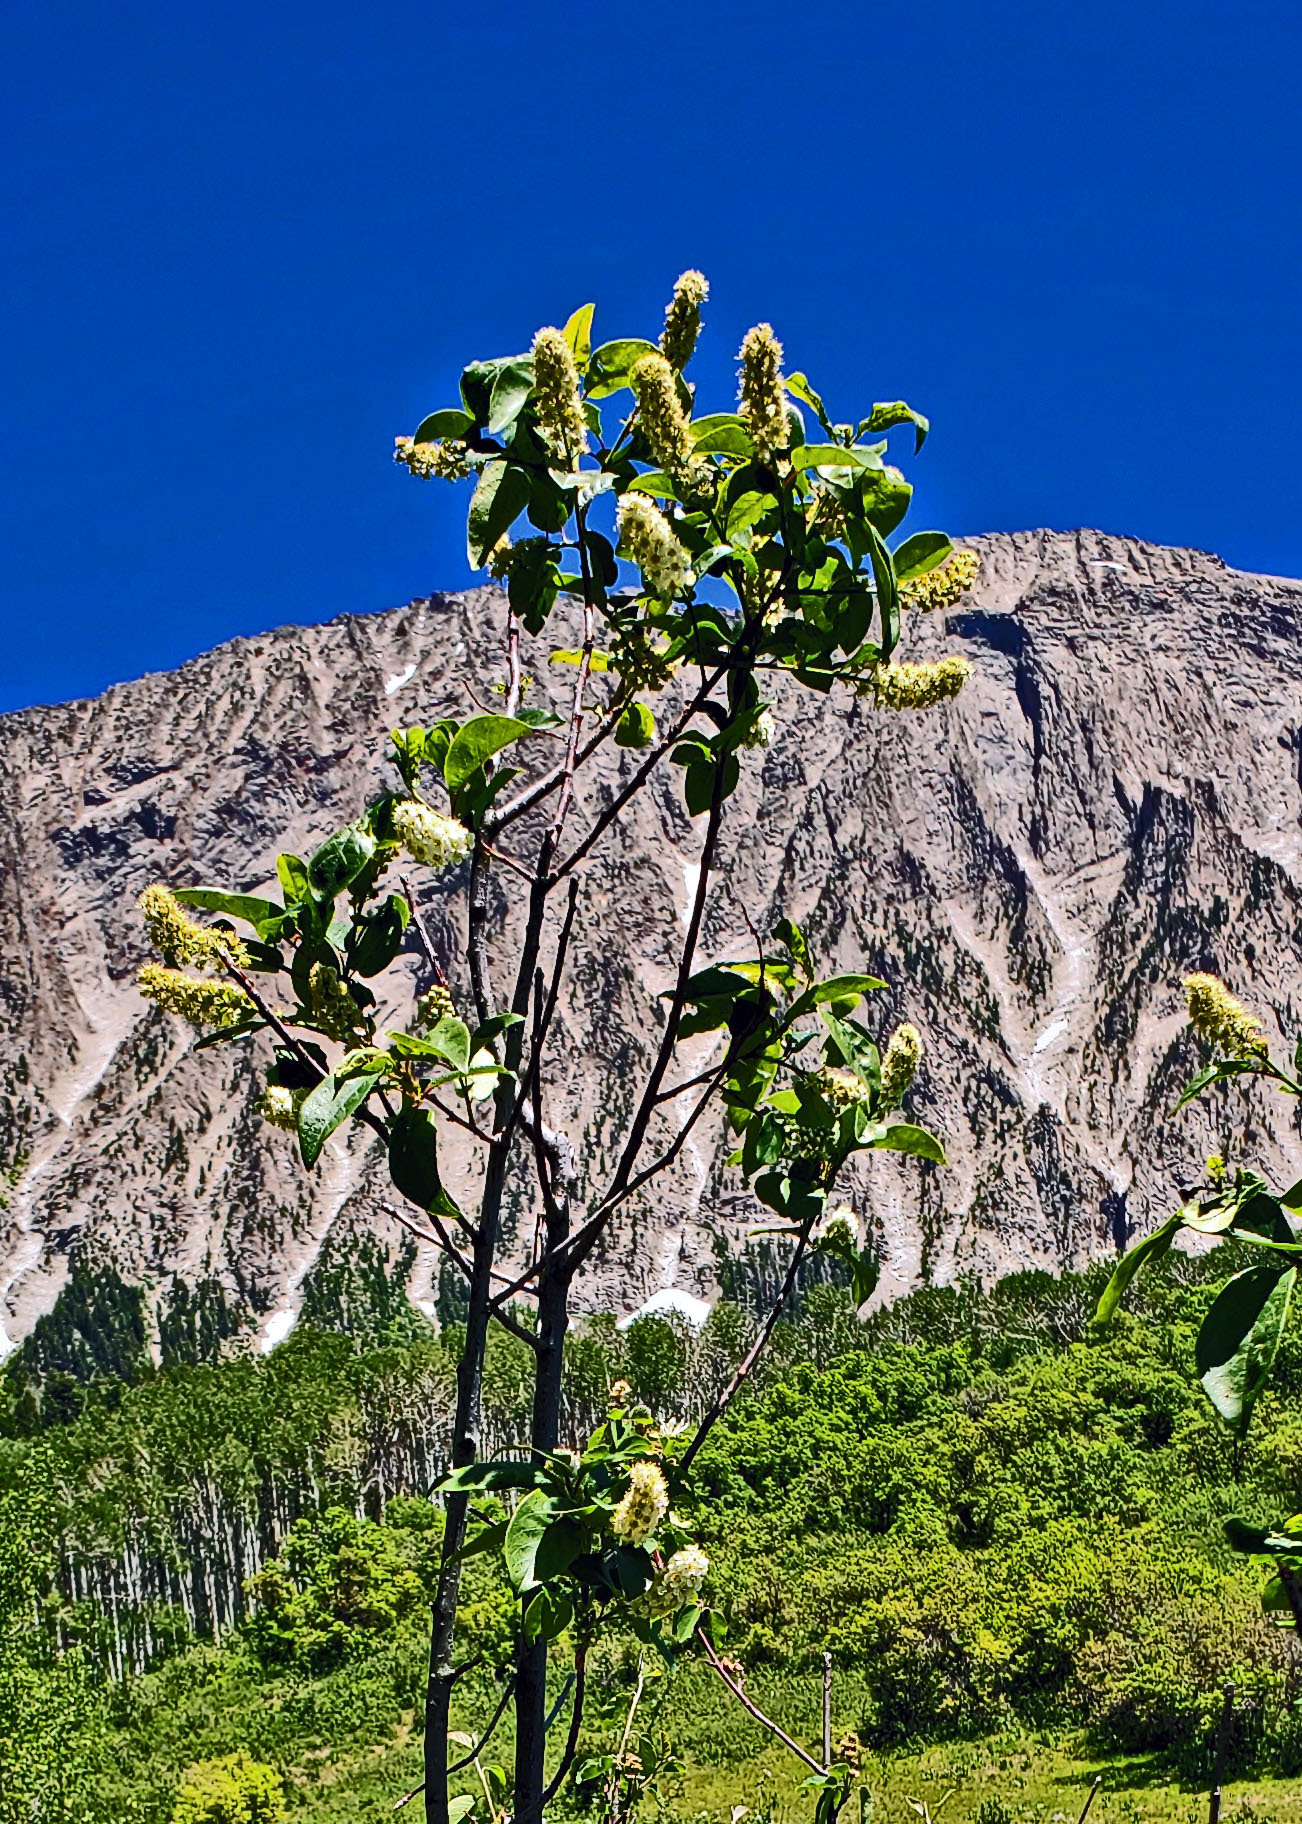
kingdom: Plantae
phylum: Tracheophyta
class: Magnoliopsida
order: Rosales
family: Rosaceae
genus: Prunus
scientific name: Prunus virginiana
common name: Chokecherry
